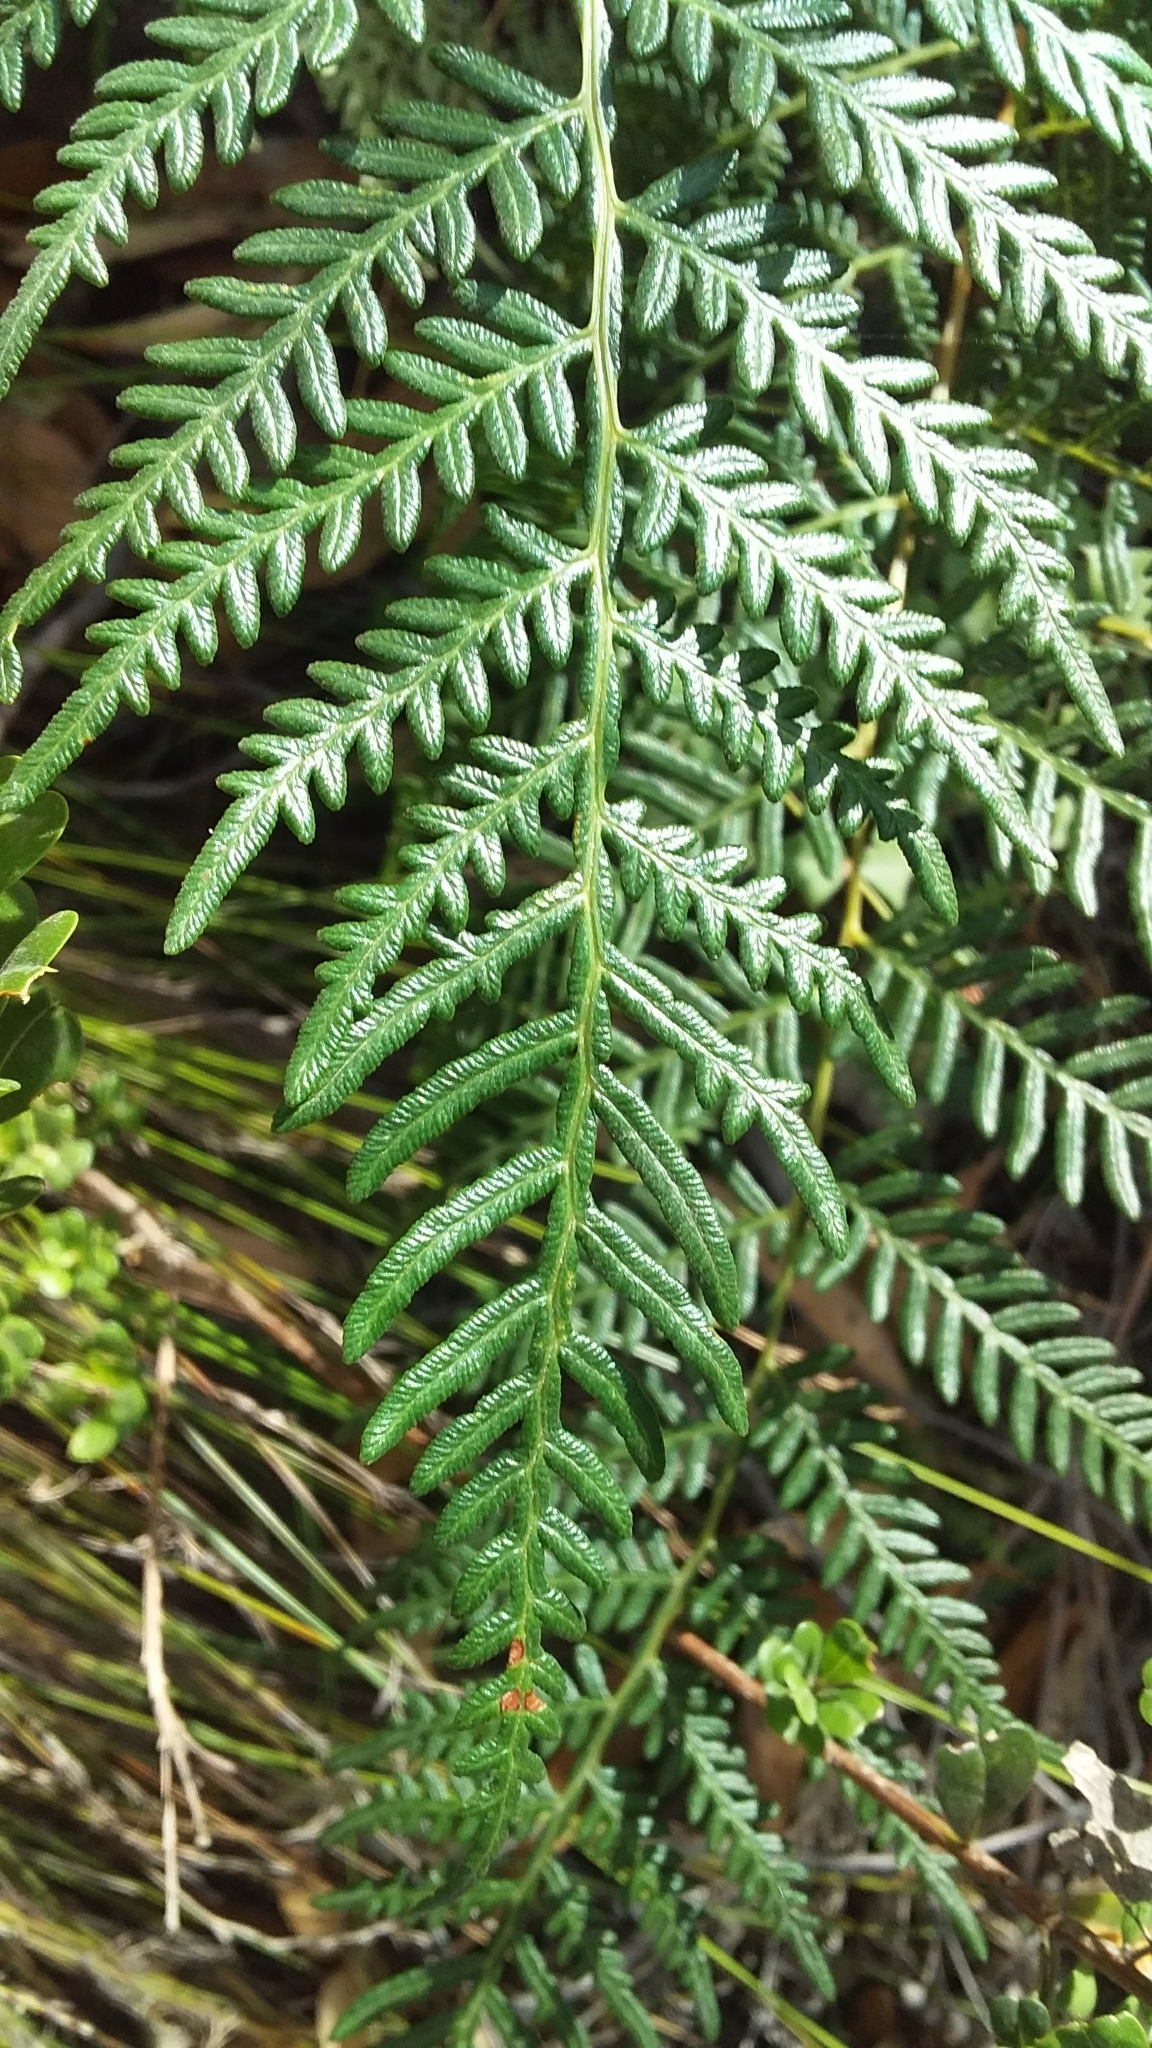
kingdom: Plantae
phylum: Tracheophyta
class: Polypodiopsida
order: Polypodiales
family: Dennstaedtiaceae
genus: Pteridium
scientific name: Pteridium esculentum
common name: Bracken fern
